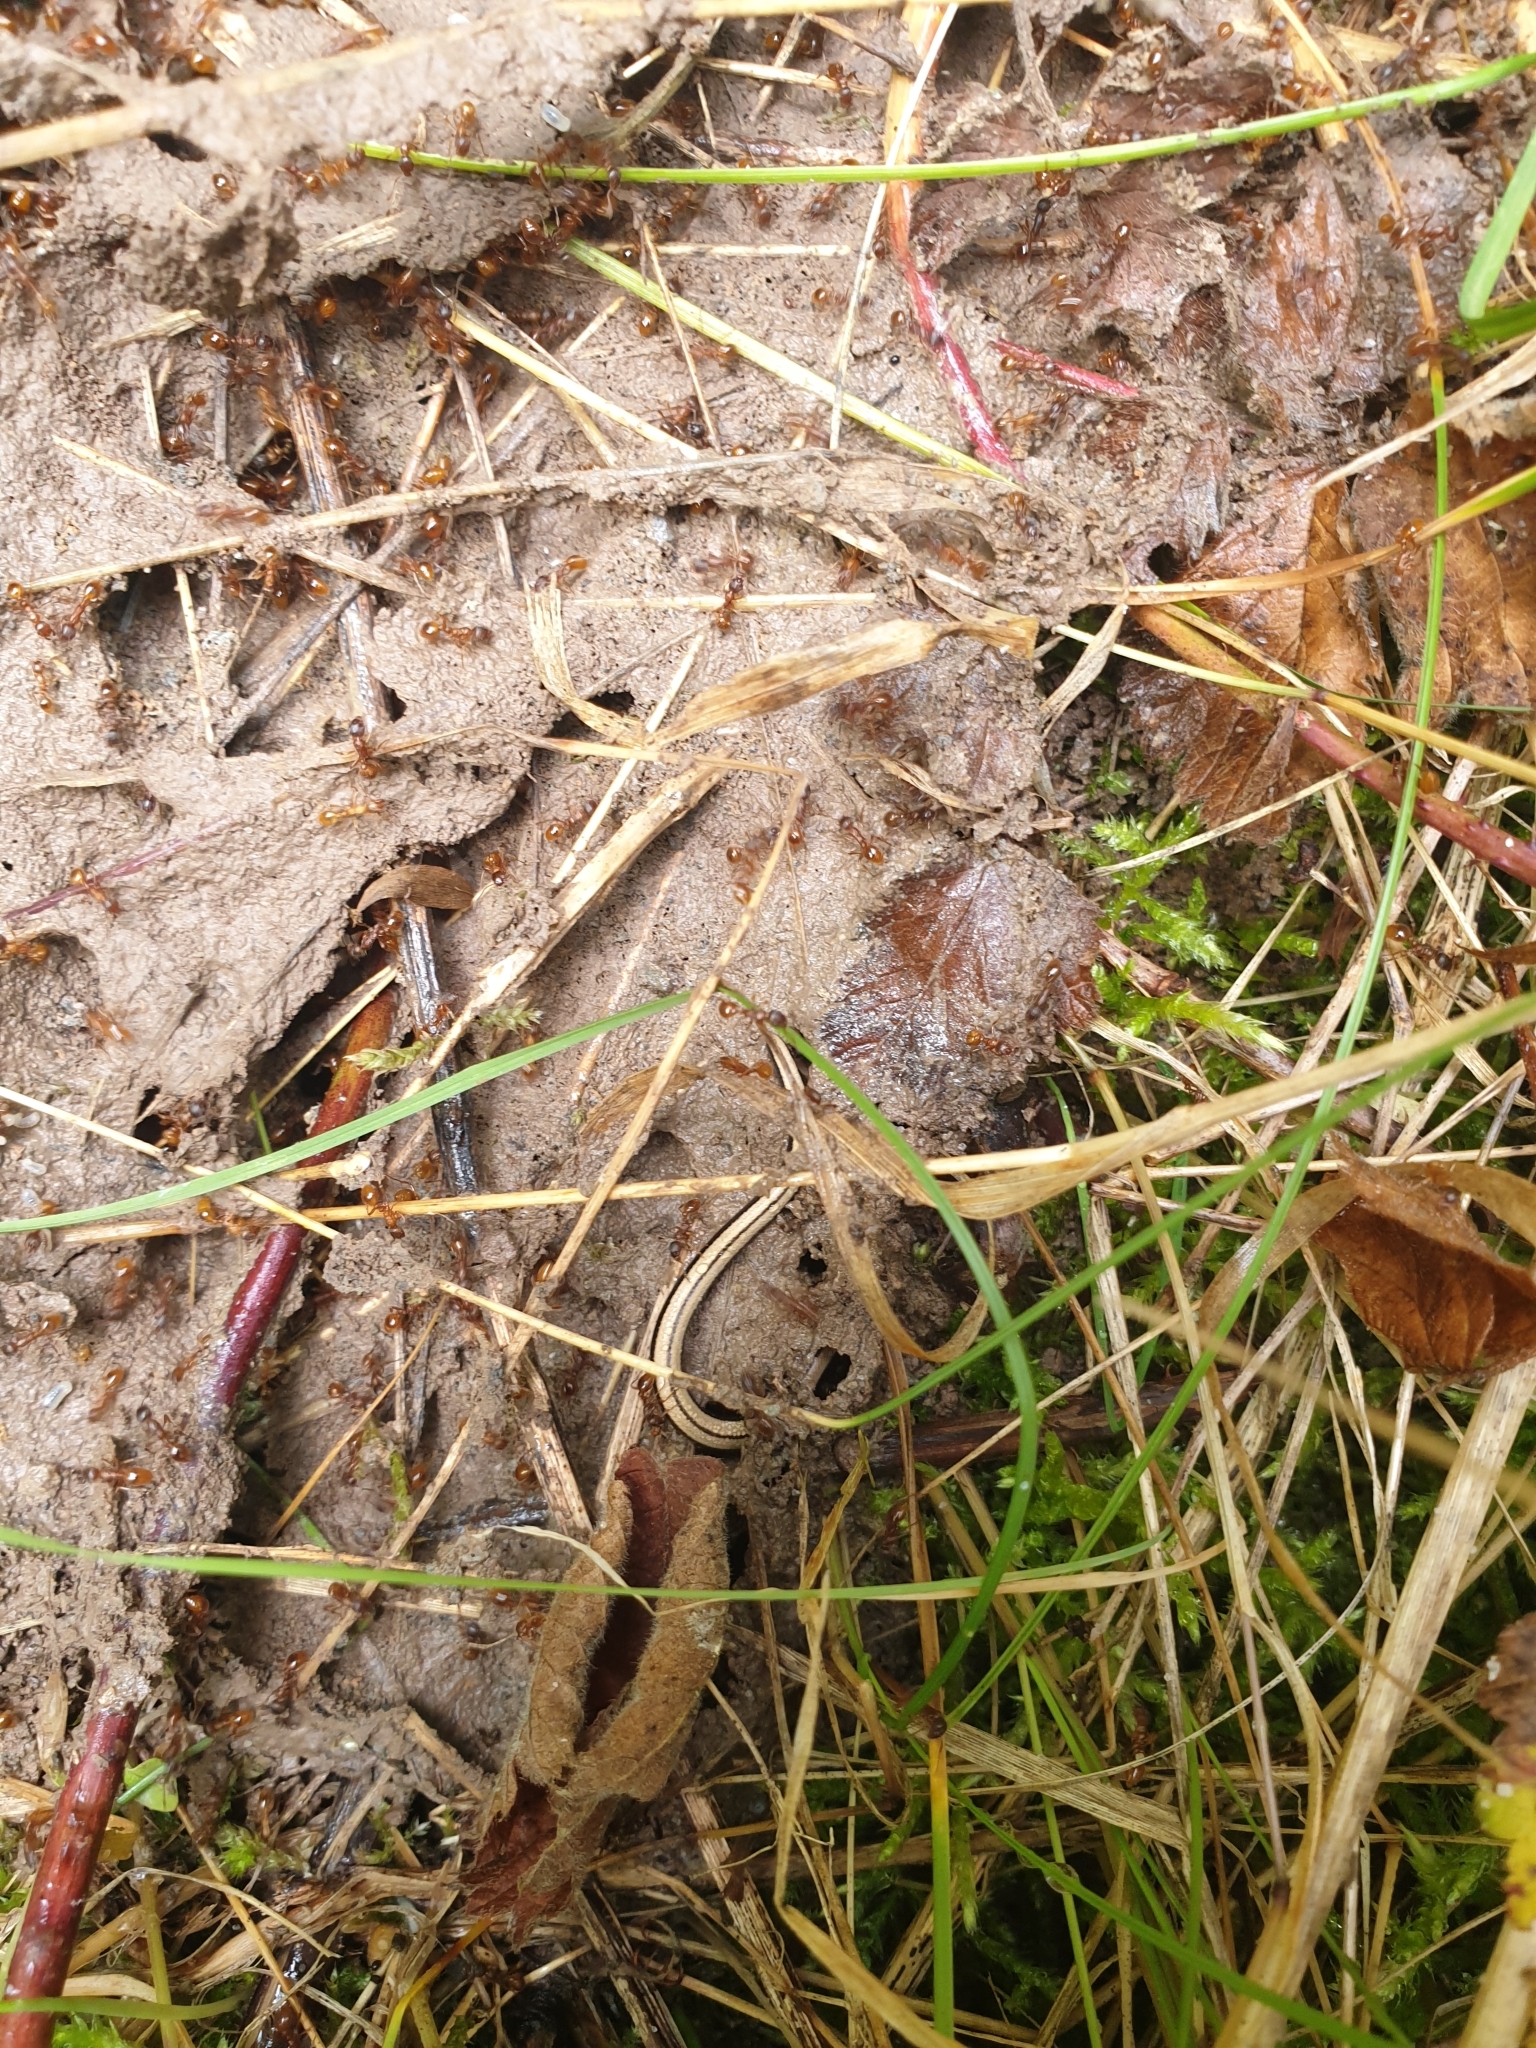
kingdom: Animalia
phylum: Chordata
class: Squamata
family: Anguidae
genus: Anguis
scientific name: Anguis fragilis
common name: Slow worm
